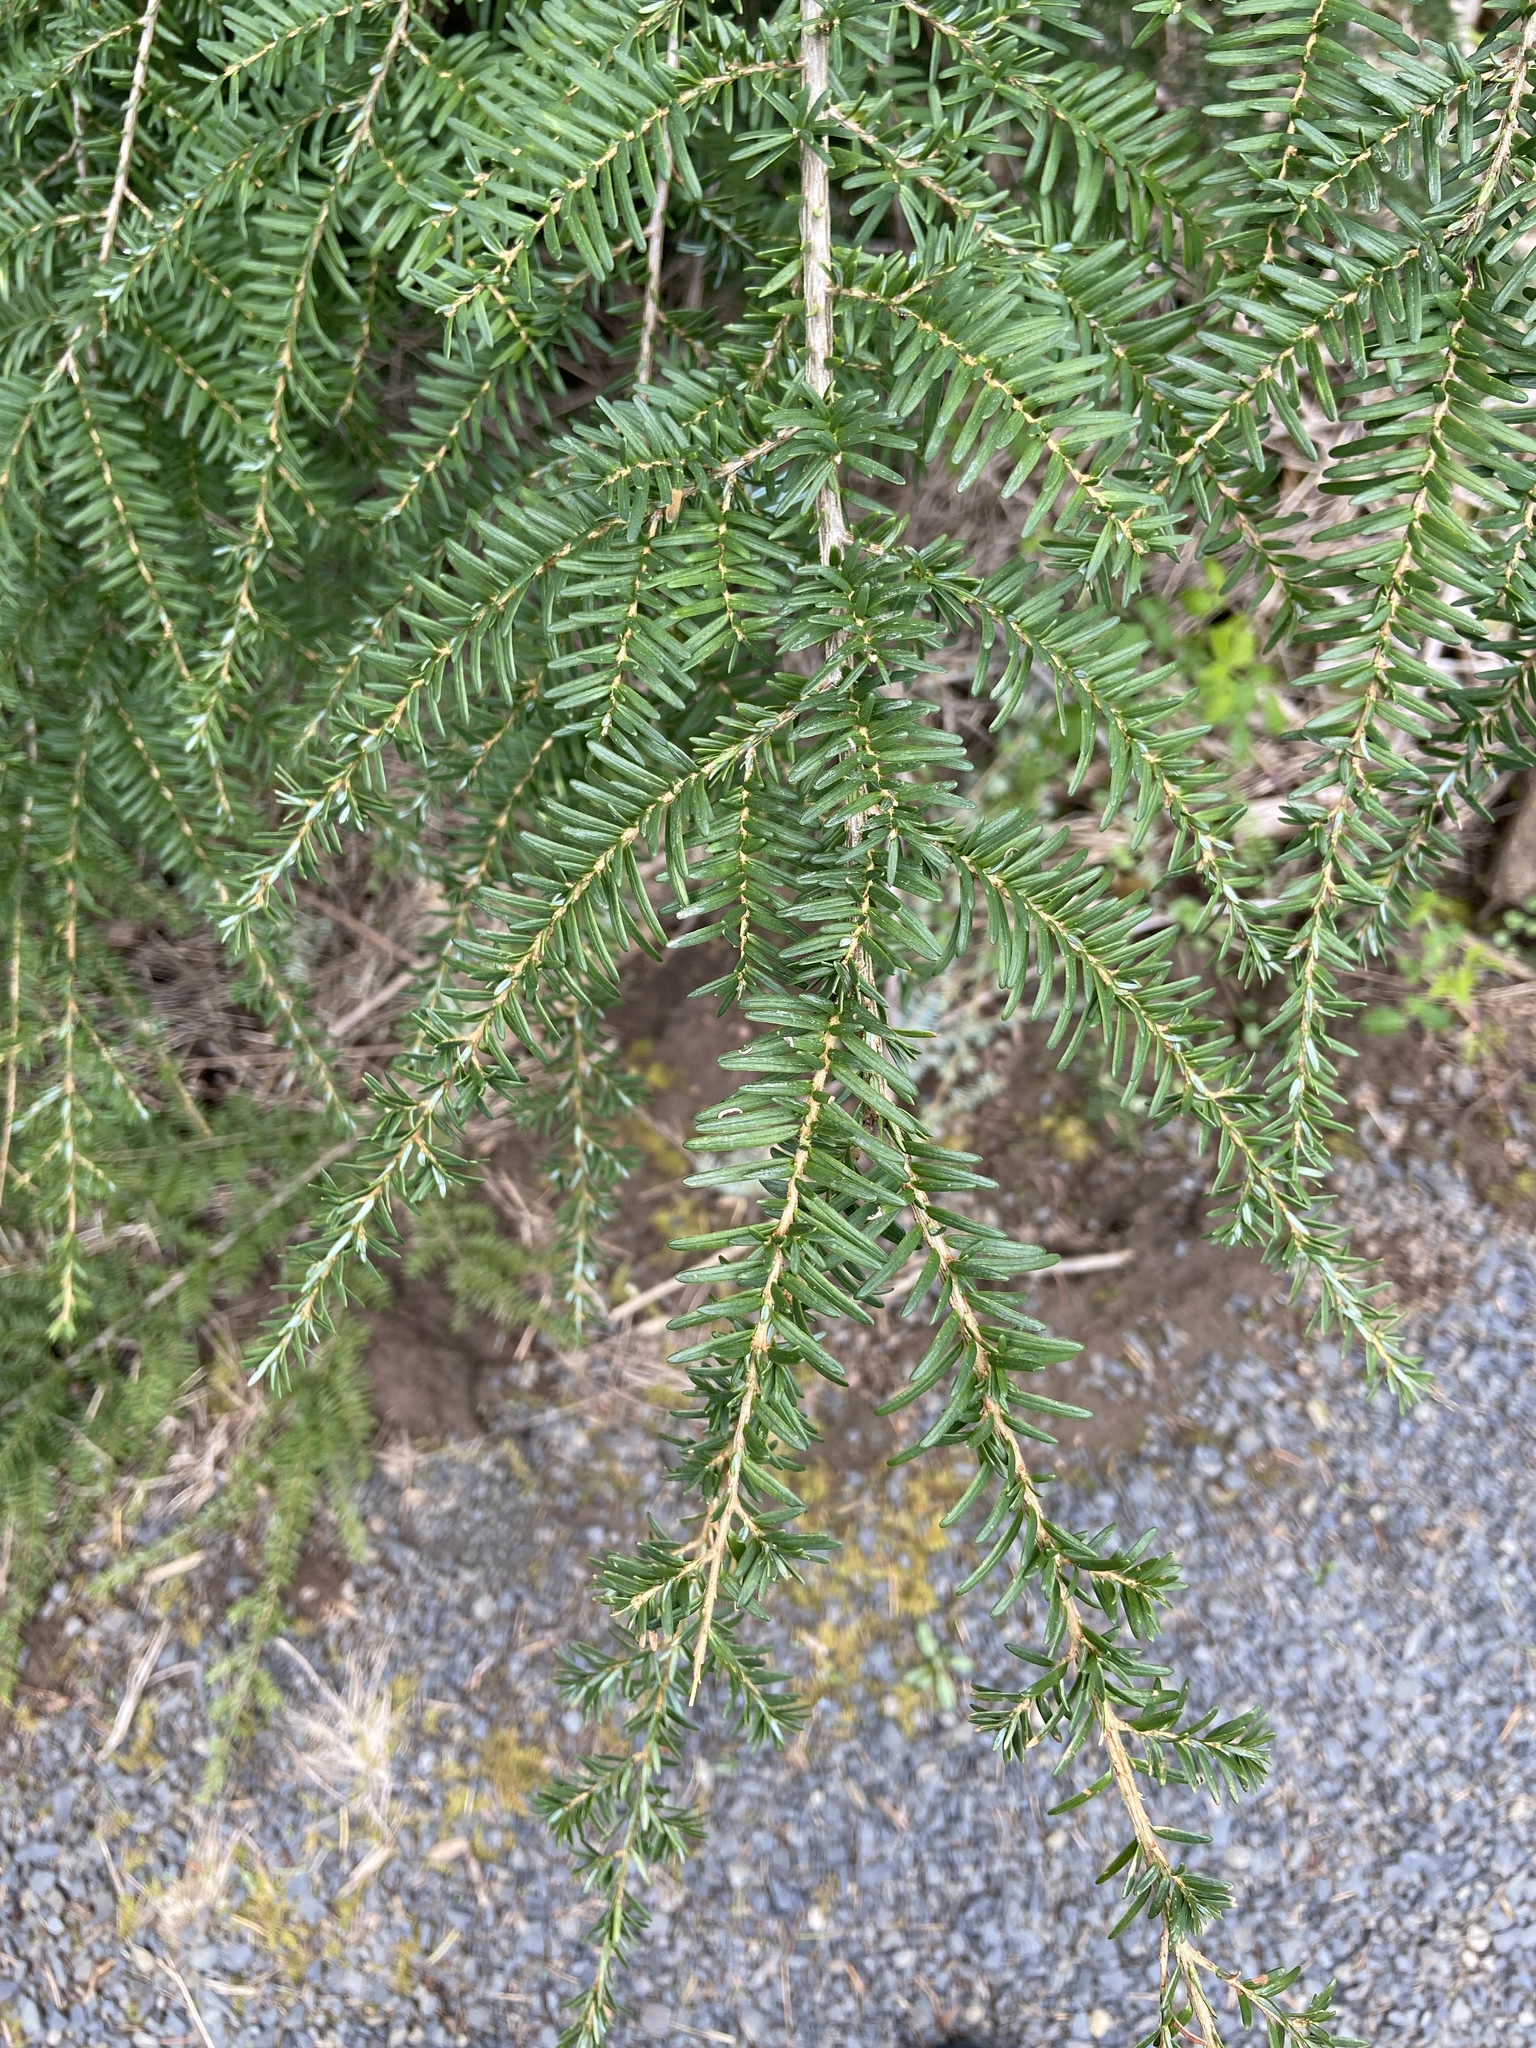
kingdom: Plantae
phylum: Tracheophyta
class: Pinopsida
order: Pinales
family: Pinaceae
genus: Tsuga
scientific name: Tsuga heterophylla
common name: Western hemlock
